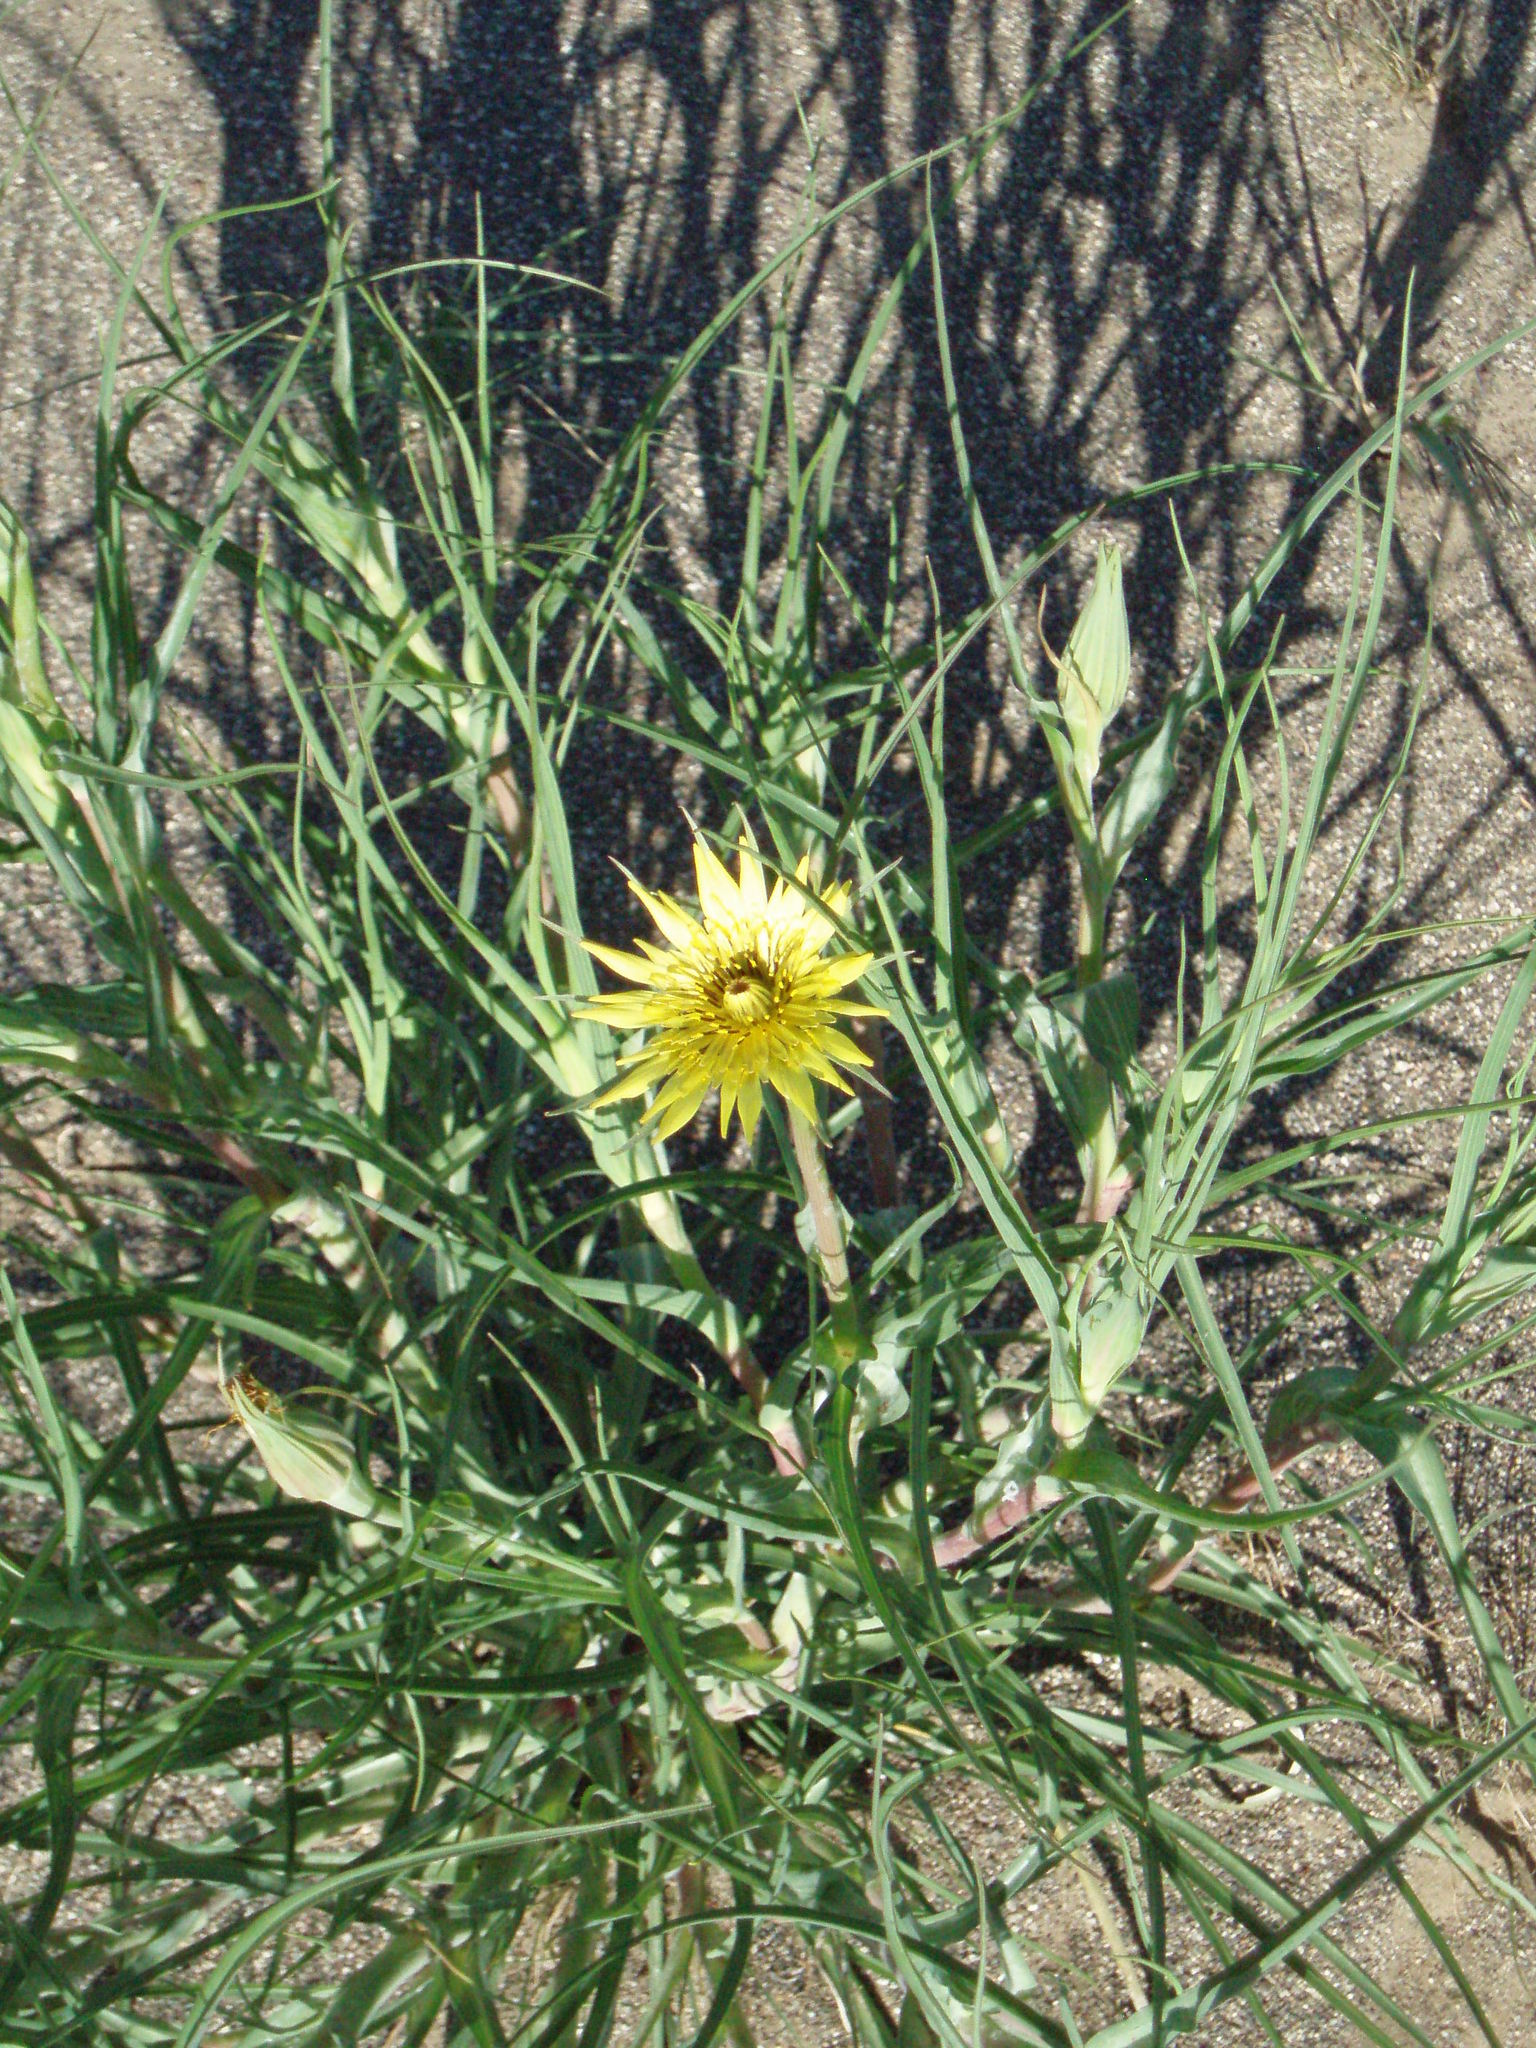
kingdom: Plantae
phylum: Tracheophyta
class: Magnoliopsida
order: Asterales
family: Asteraceae
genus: Tragopogon
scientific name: Tragopogon dubius
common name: Yellow salsify
